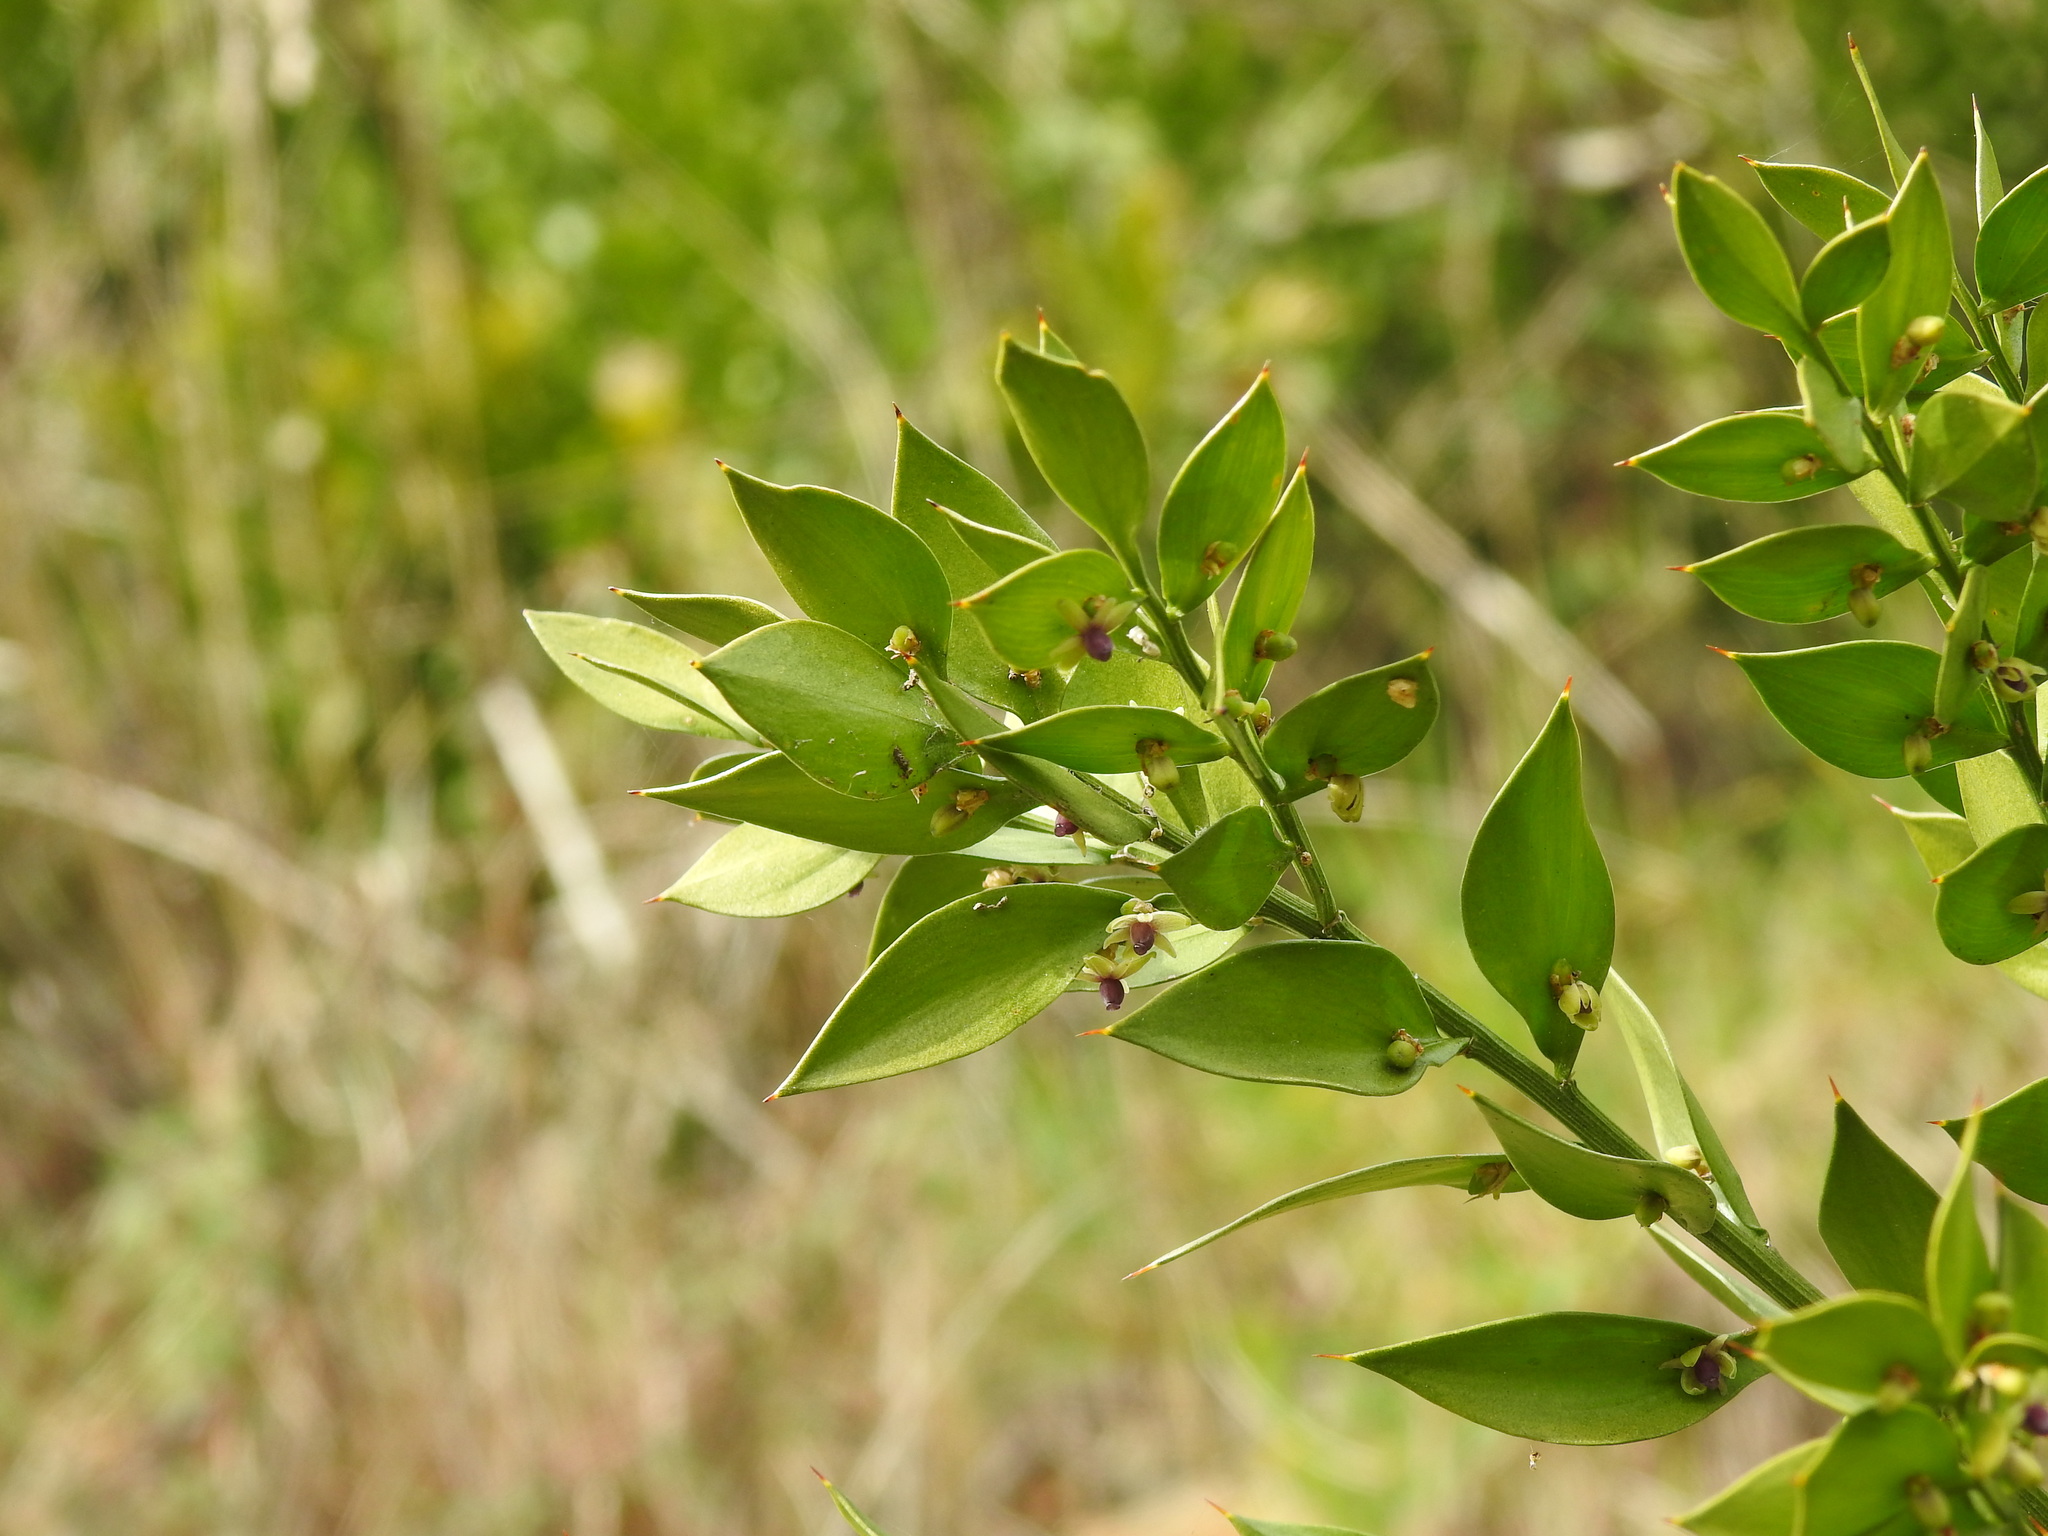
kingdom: Plantae
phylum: Tracheophyta
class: Liliopsida
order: Asparagales
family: Asparagaceae
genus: Ruscus
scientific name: Ruscus aculeatus
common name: Butcher's-broom
